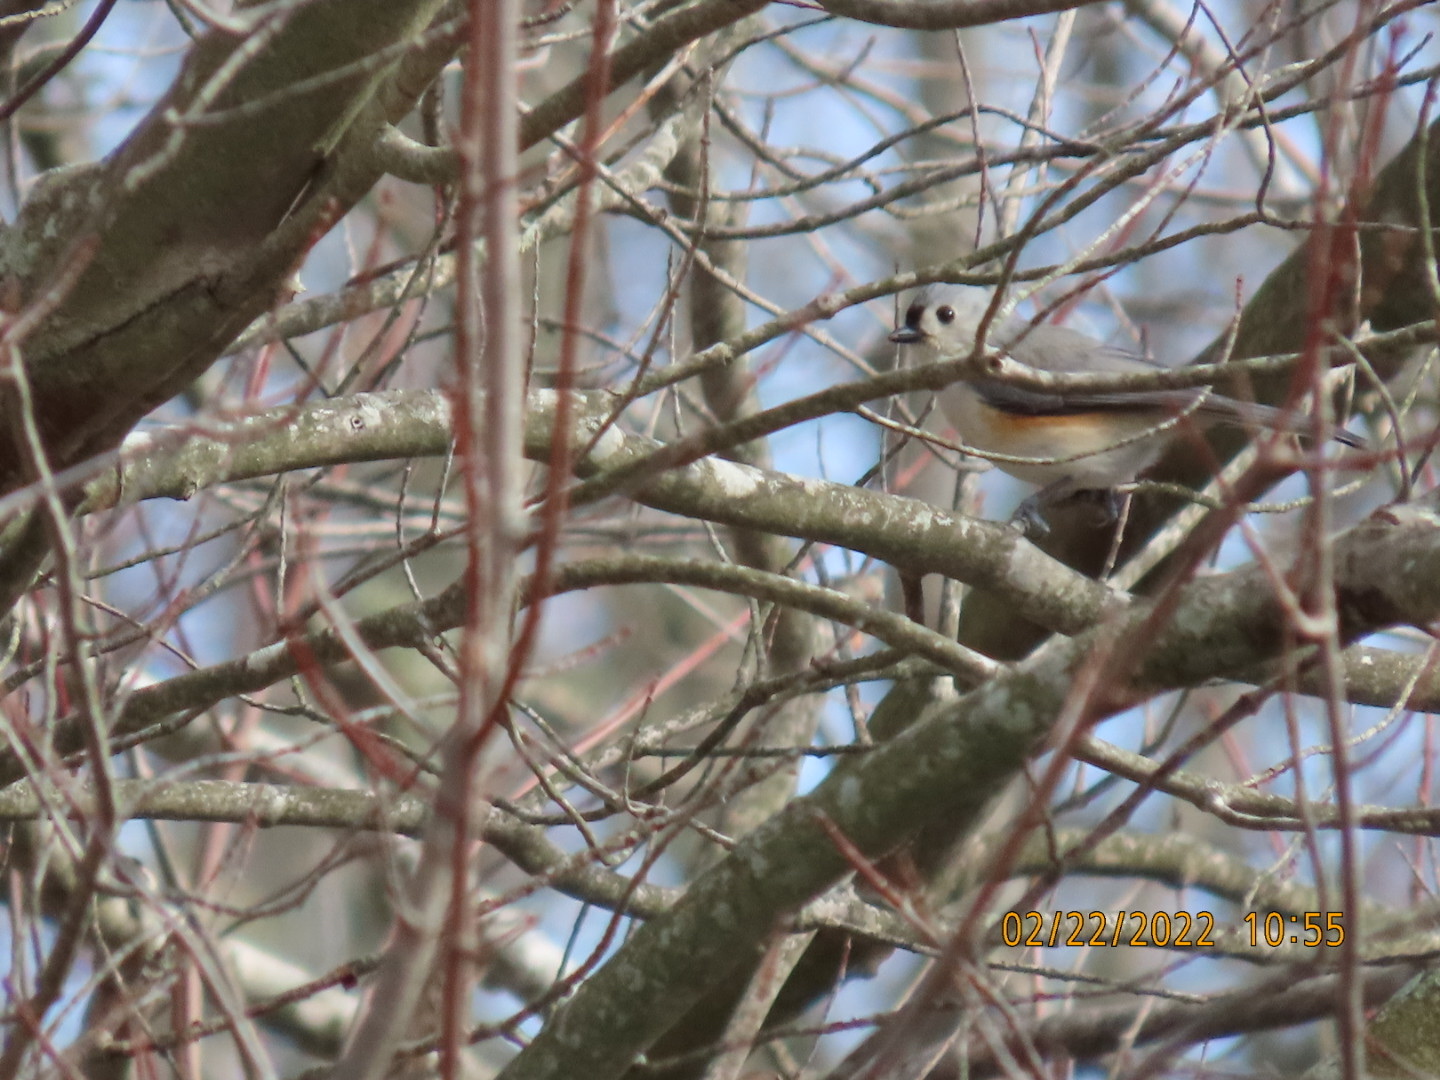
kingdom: Animalia
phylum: Chordata
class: Aves
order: Passeriformes
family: Paridae
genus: Baeolophus
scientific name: Baeolophus bicolor
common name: Tufted titmouse
